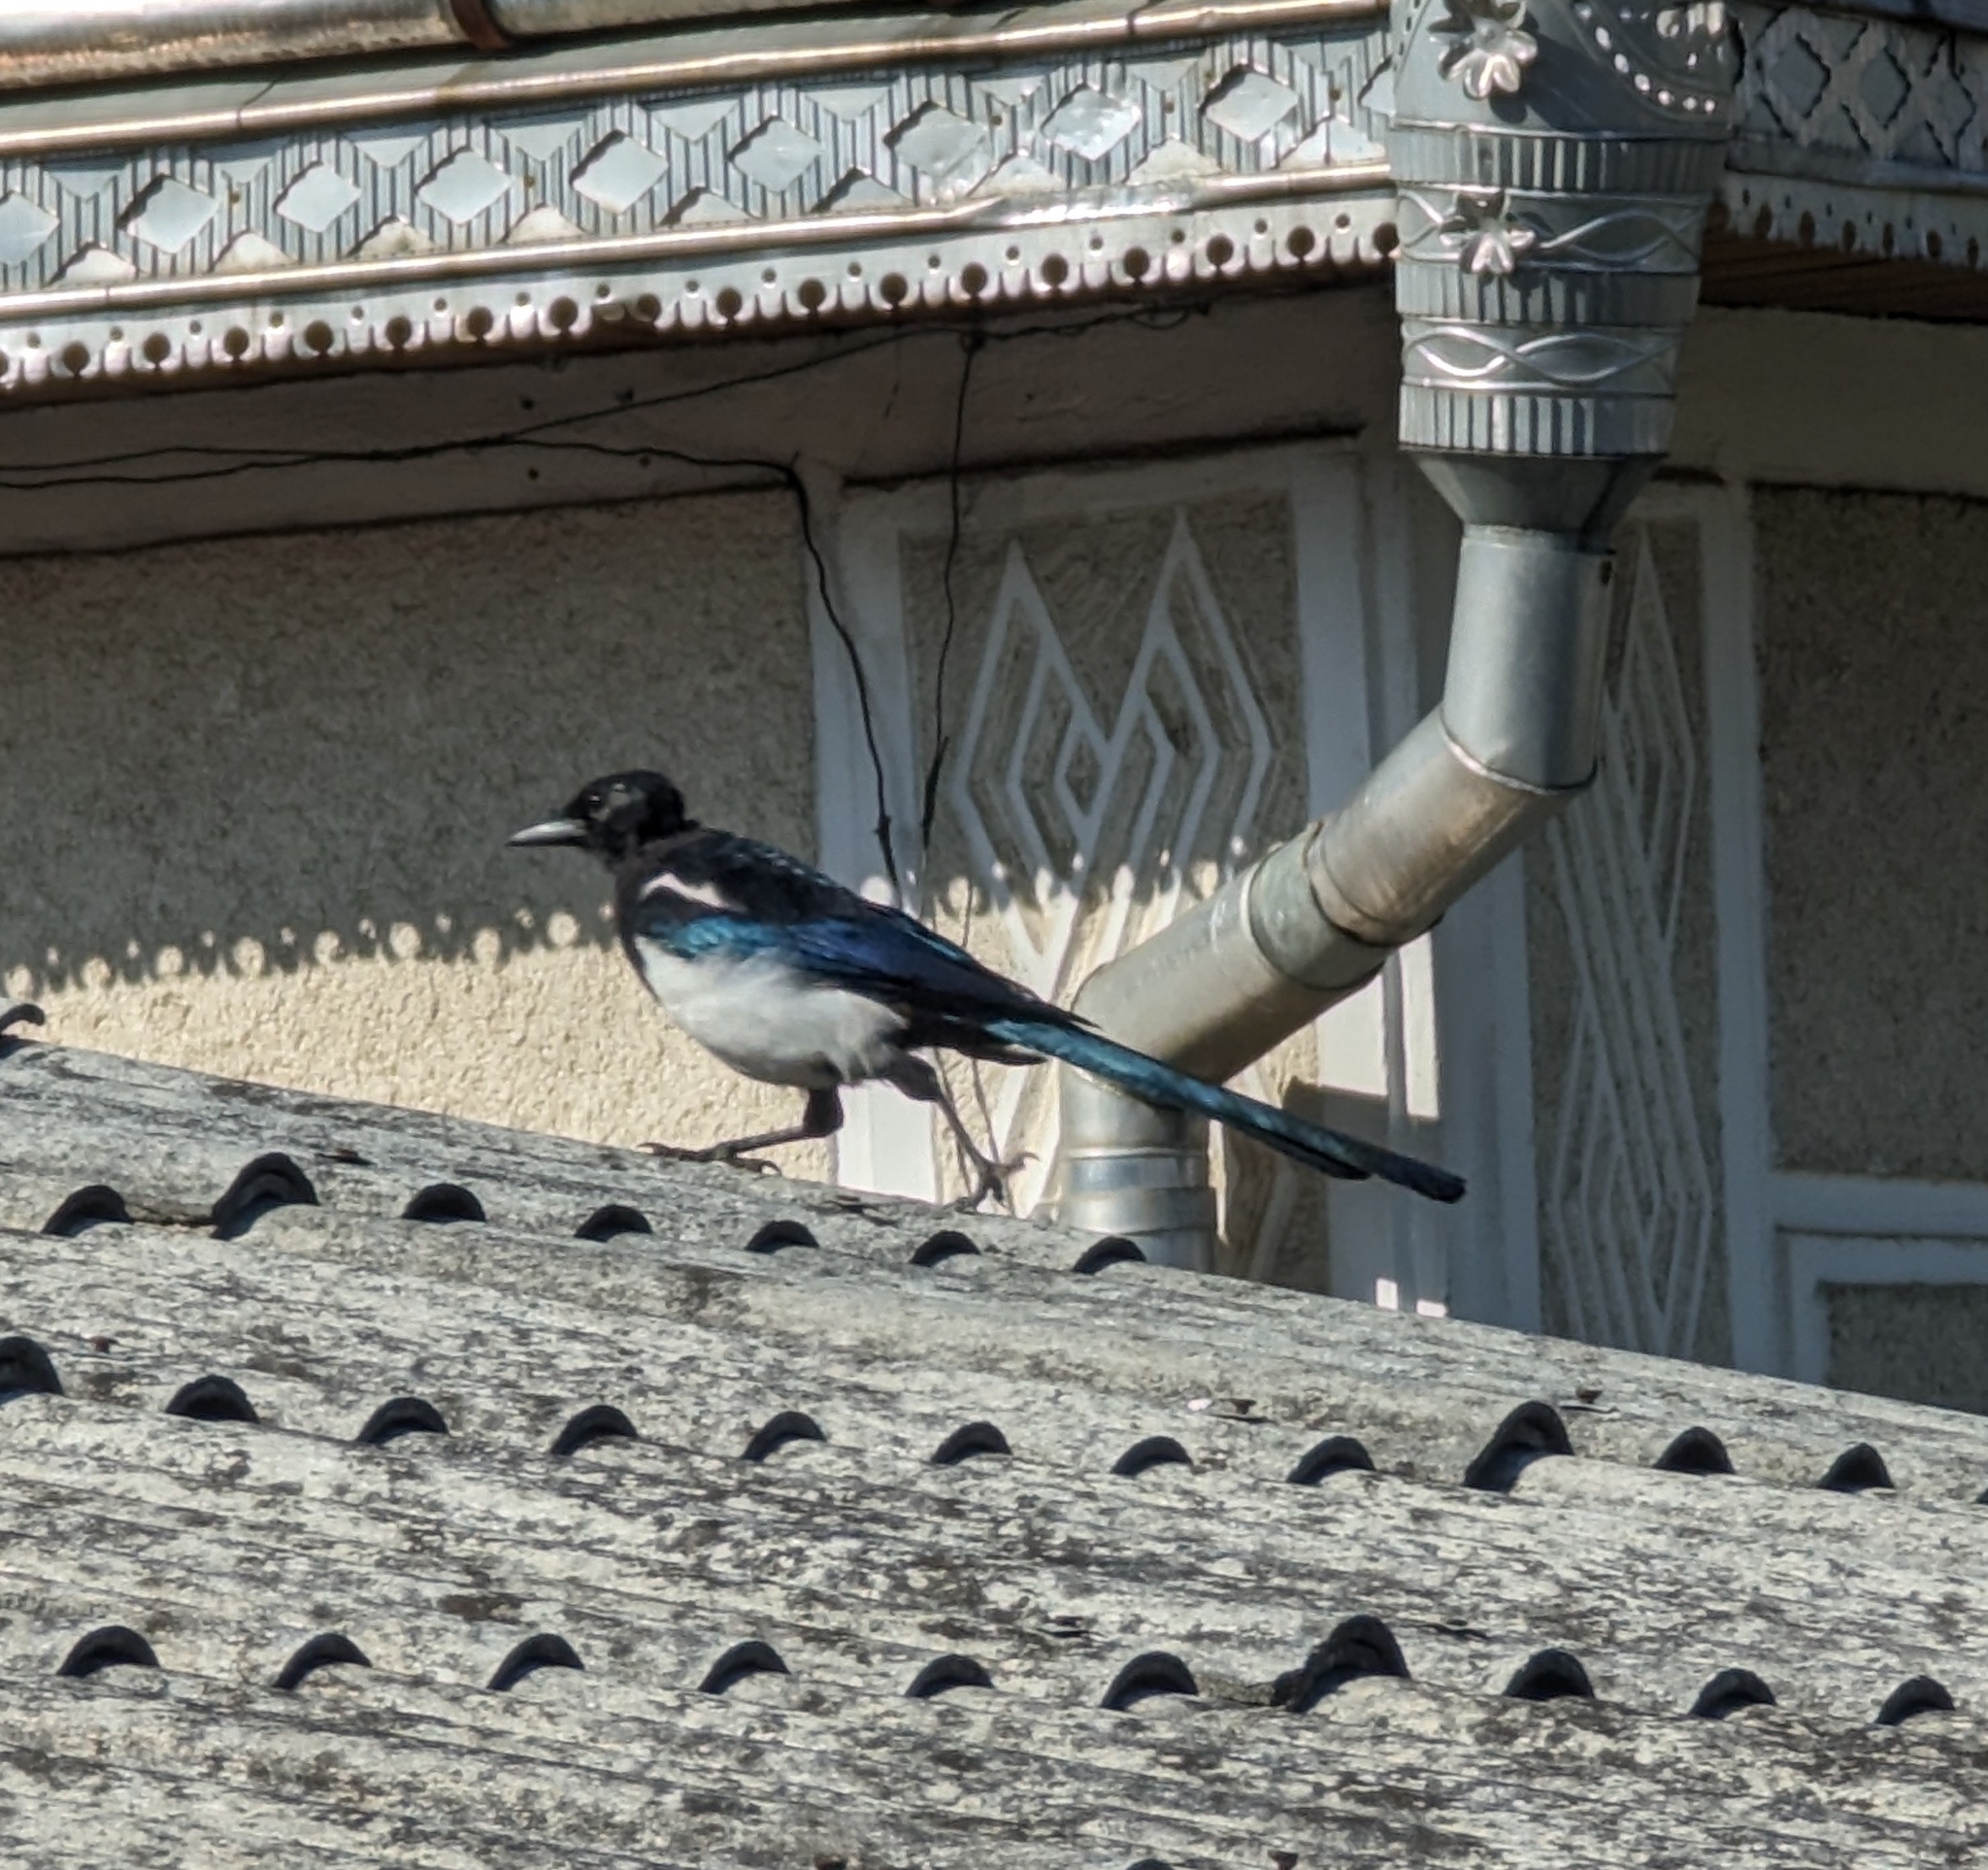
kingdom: Animalia
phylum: Chordata
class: Aves
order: Passeriformes
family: Corvidae
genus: Pica
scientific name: Pica pica
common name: Eurasian magpie
